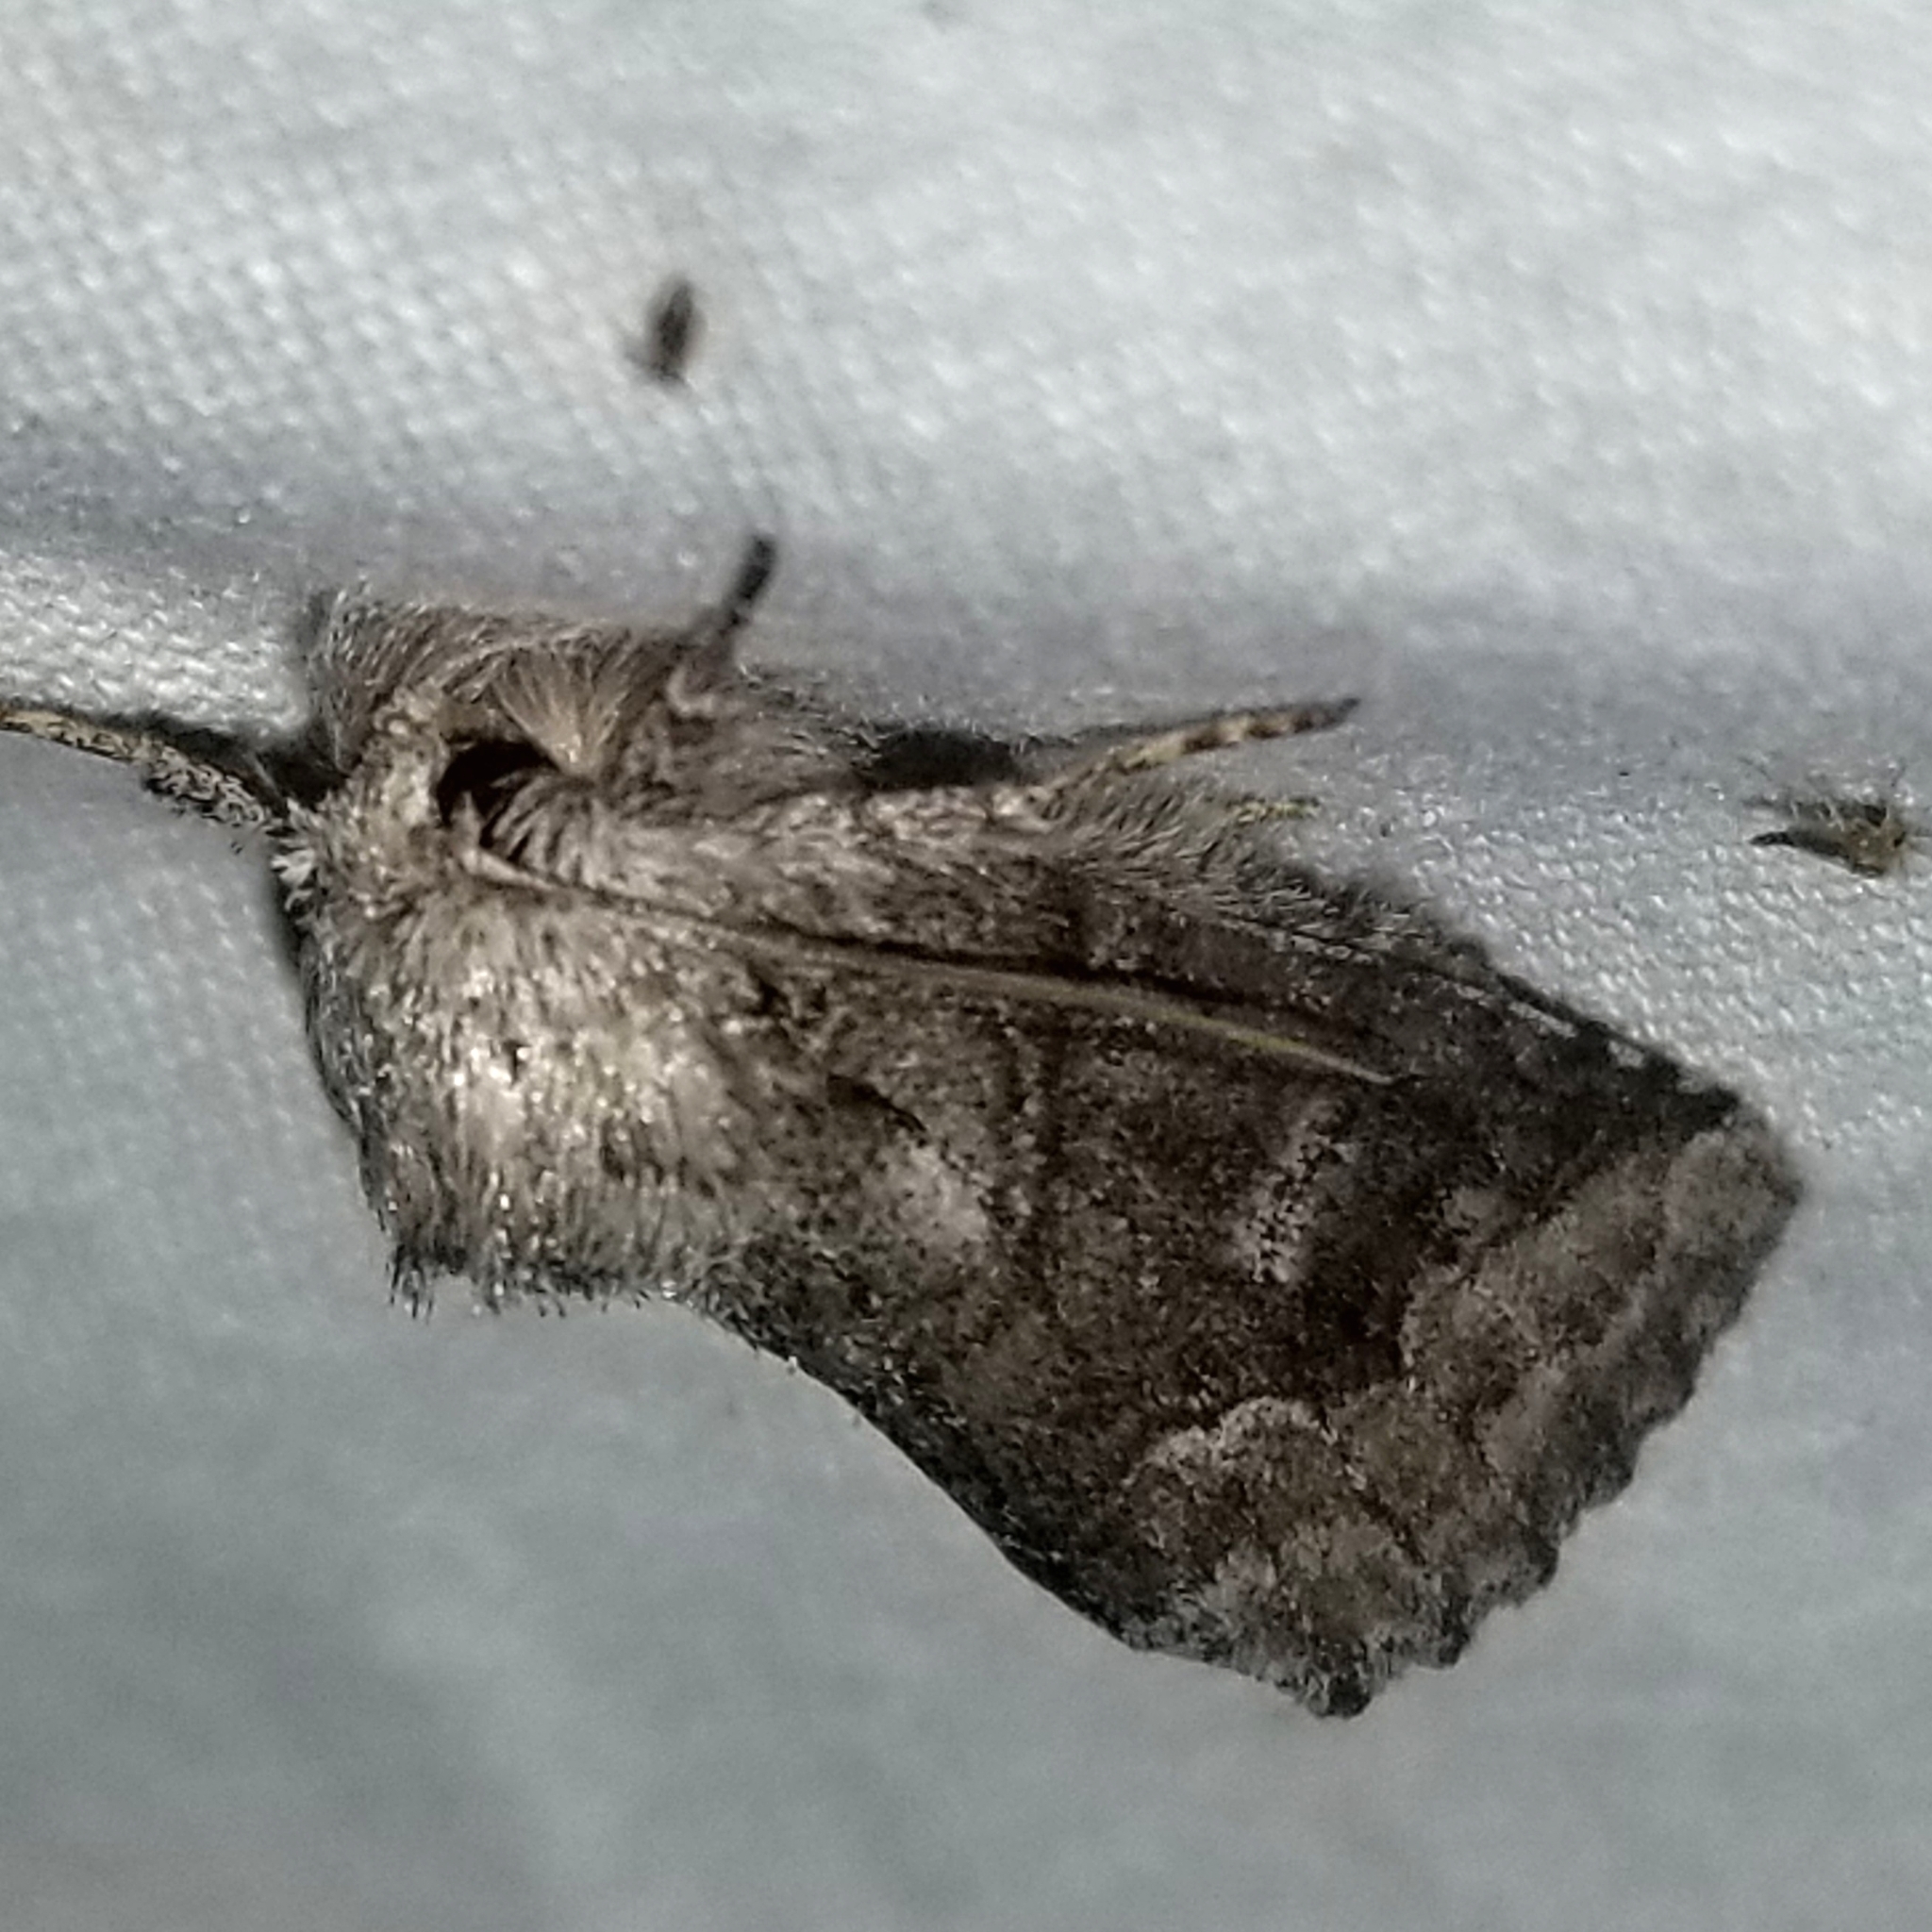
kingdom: Animalia
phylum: Arthropoda
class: Insecta
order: Lepidoptera
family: Notodontidae
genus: Lochmaeus
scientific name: Lochmaeus bilineata
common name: Double-lined prominent
